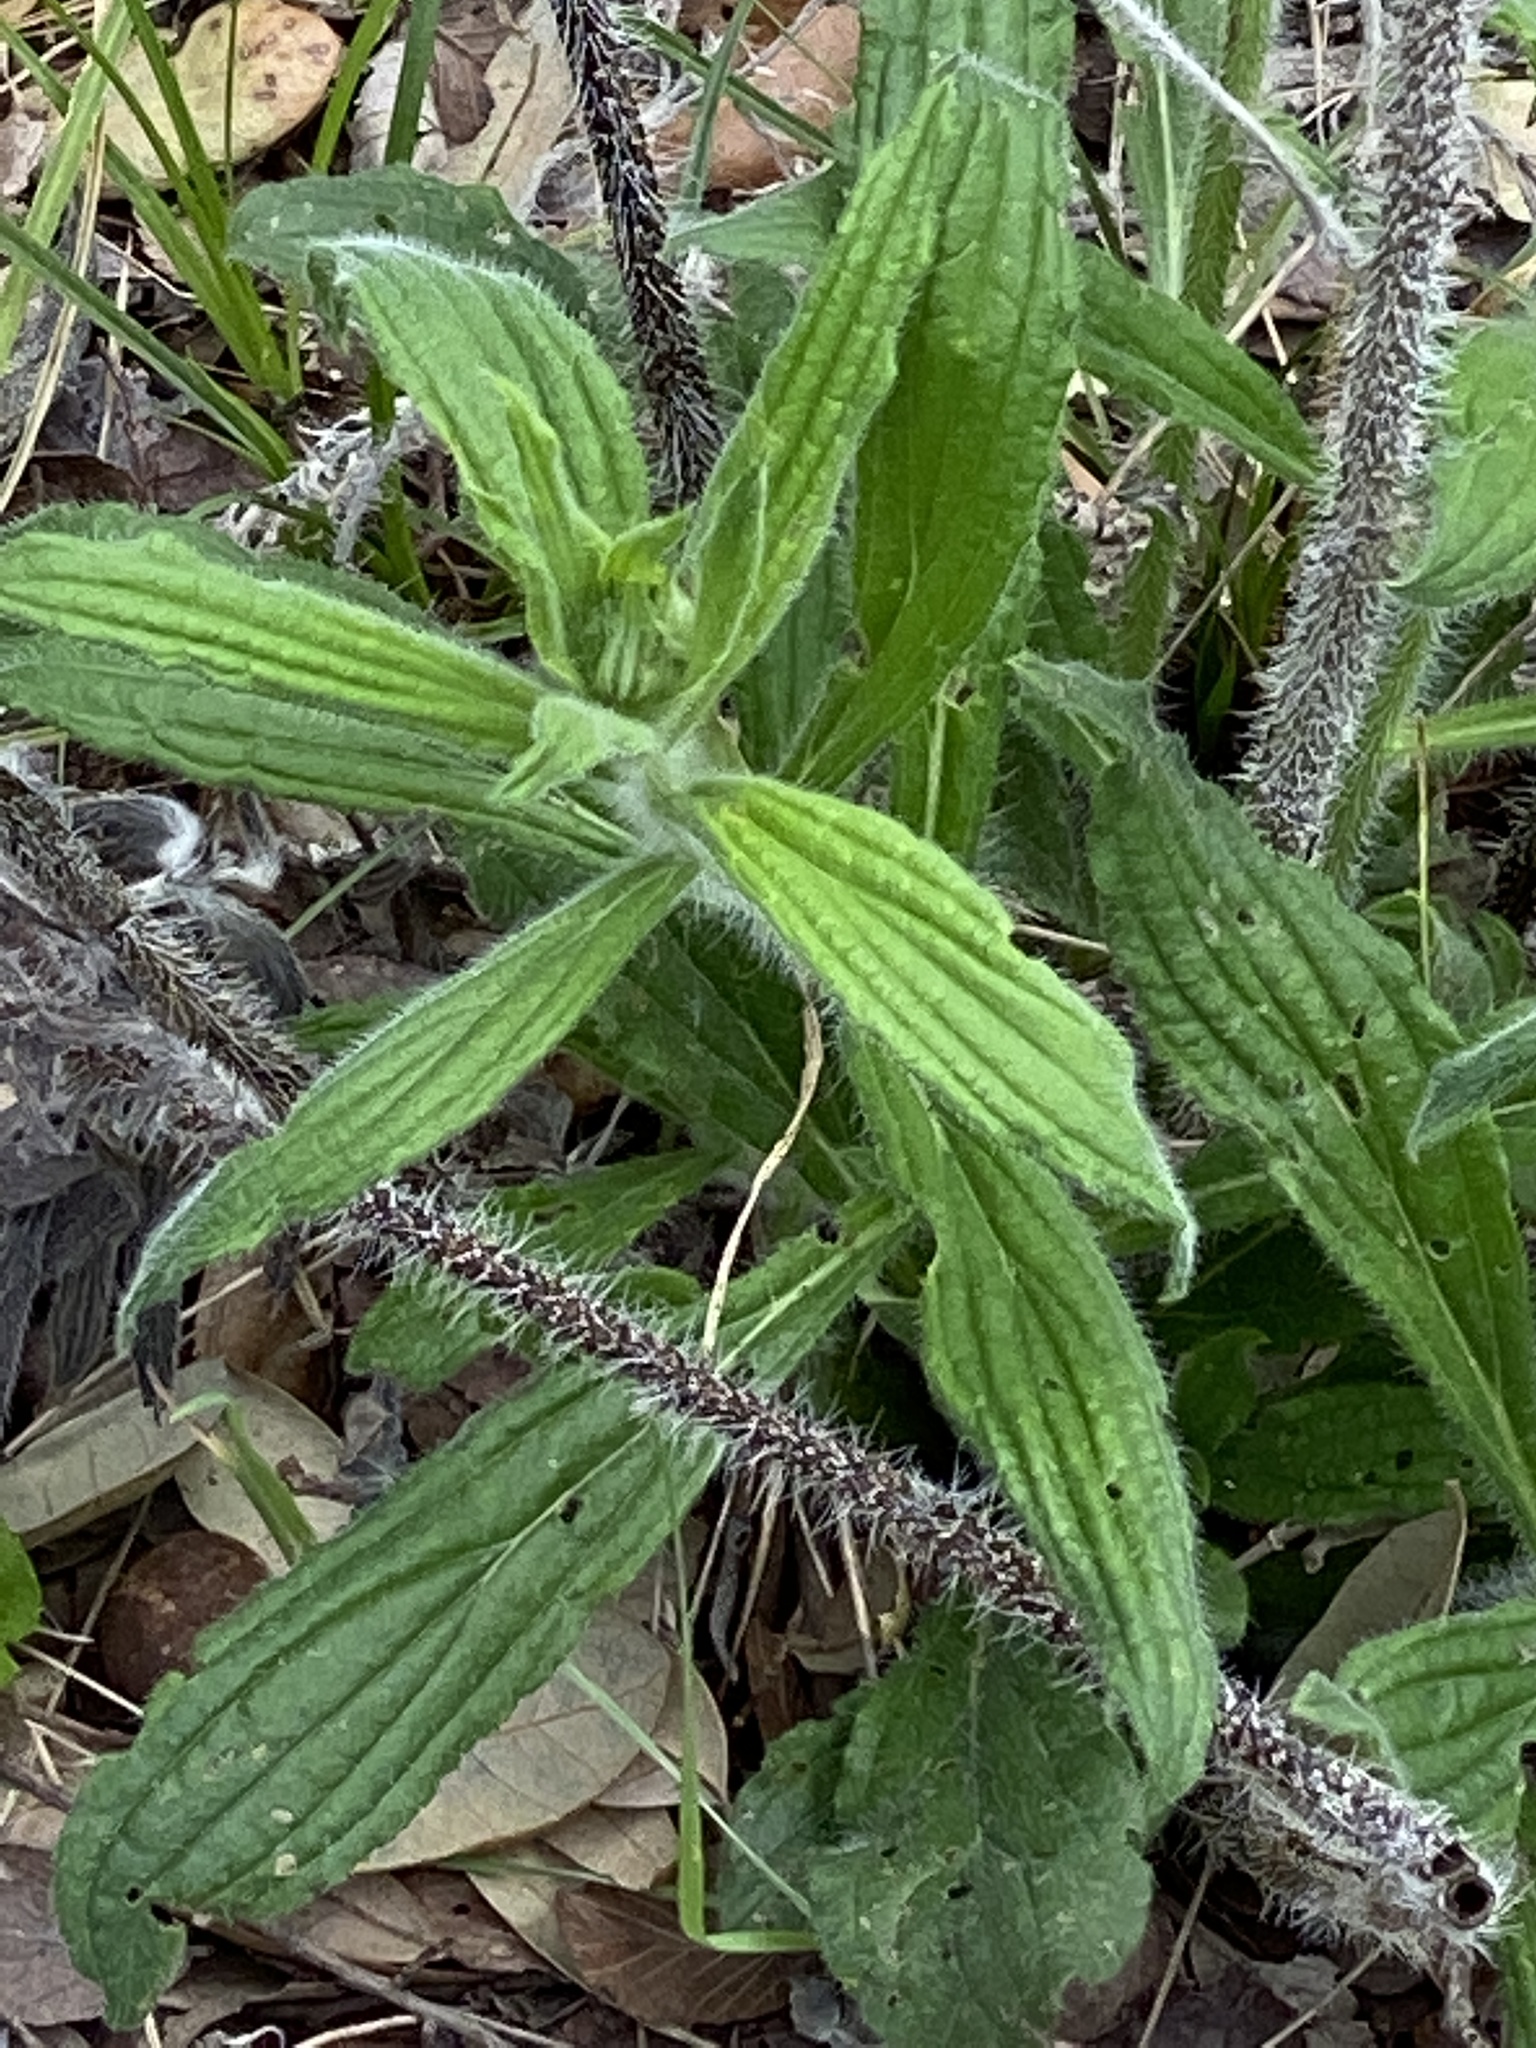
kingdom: Plantae
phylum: Tracheophyta
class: Magnoliopsida
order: Boraginales
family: Boraginaceae
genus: Lithospermum
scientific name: Lithospermum caroliniense
